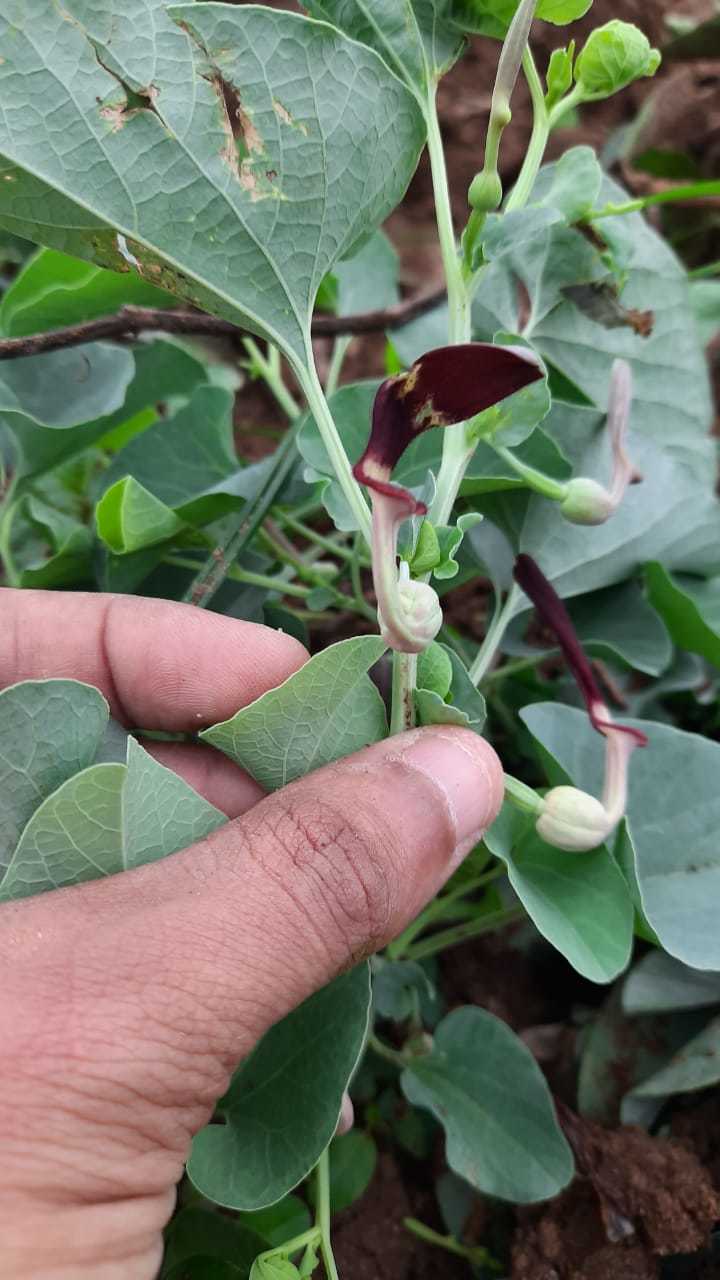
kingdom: Plantae
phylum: Tracheophyta
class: Magnoliopsida
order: Piperales
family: Aristolochiaceae
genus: Aristolochia
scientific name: Aristolochia bracteolata
